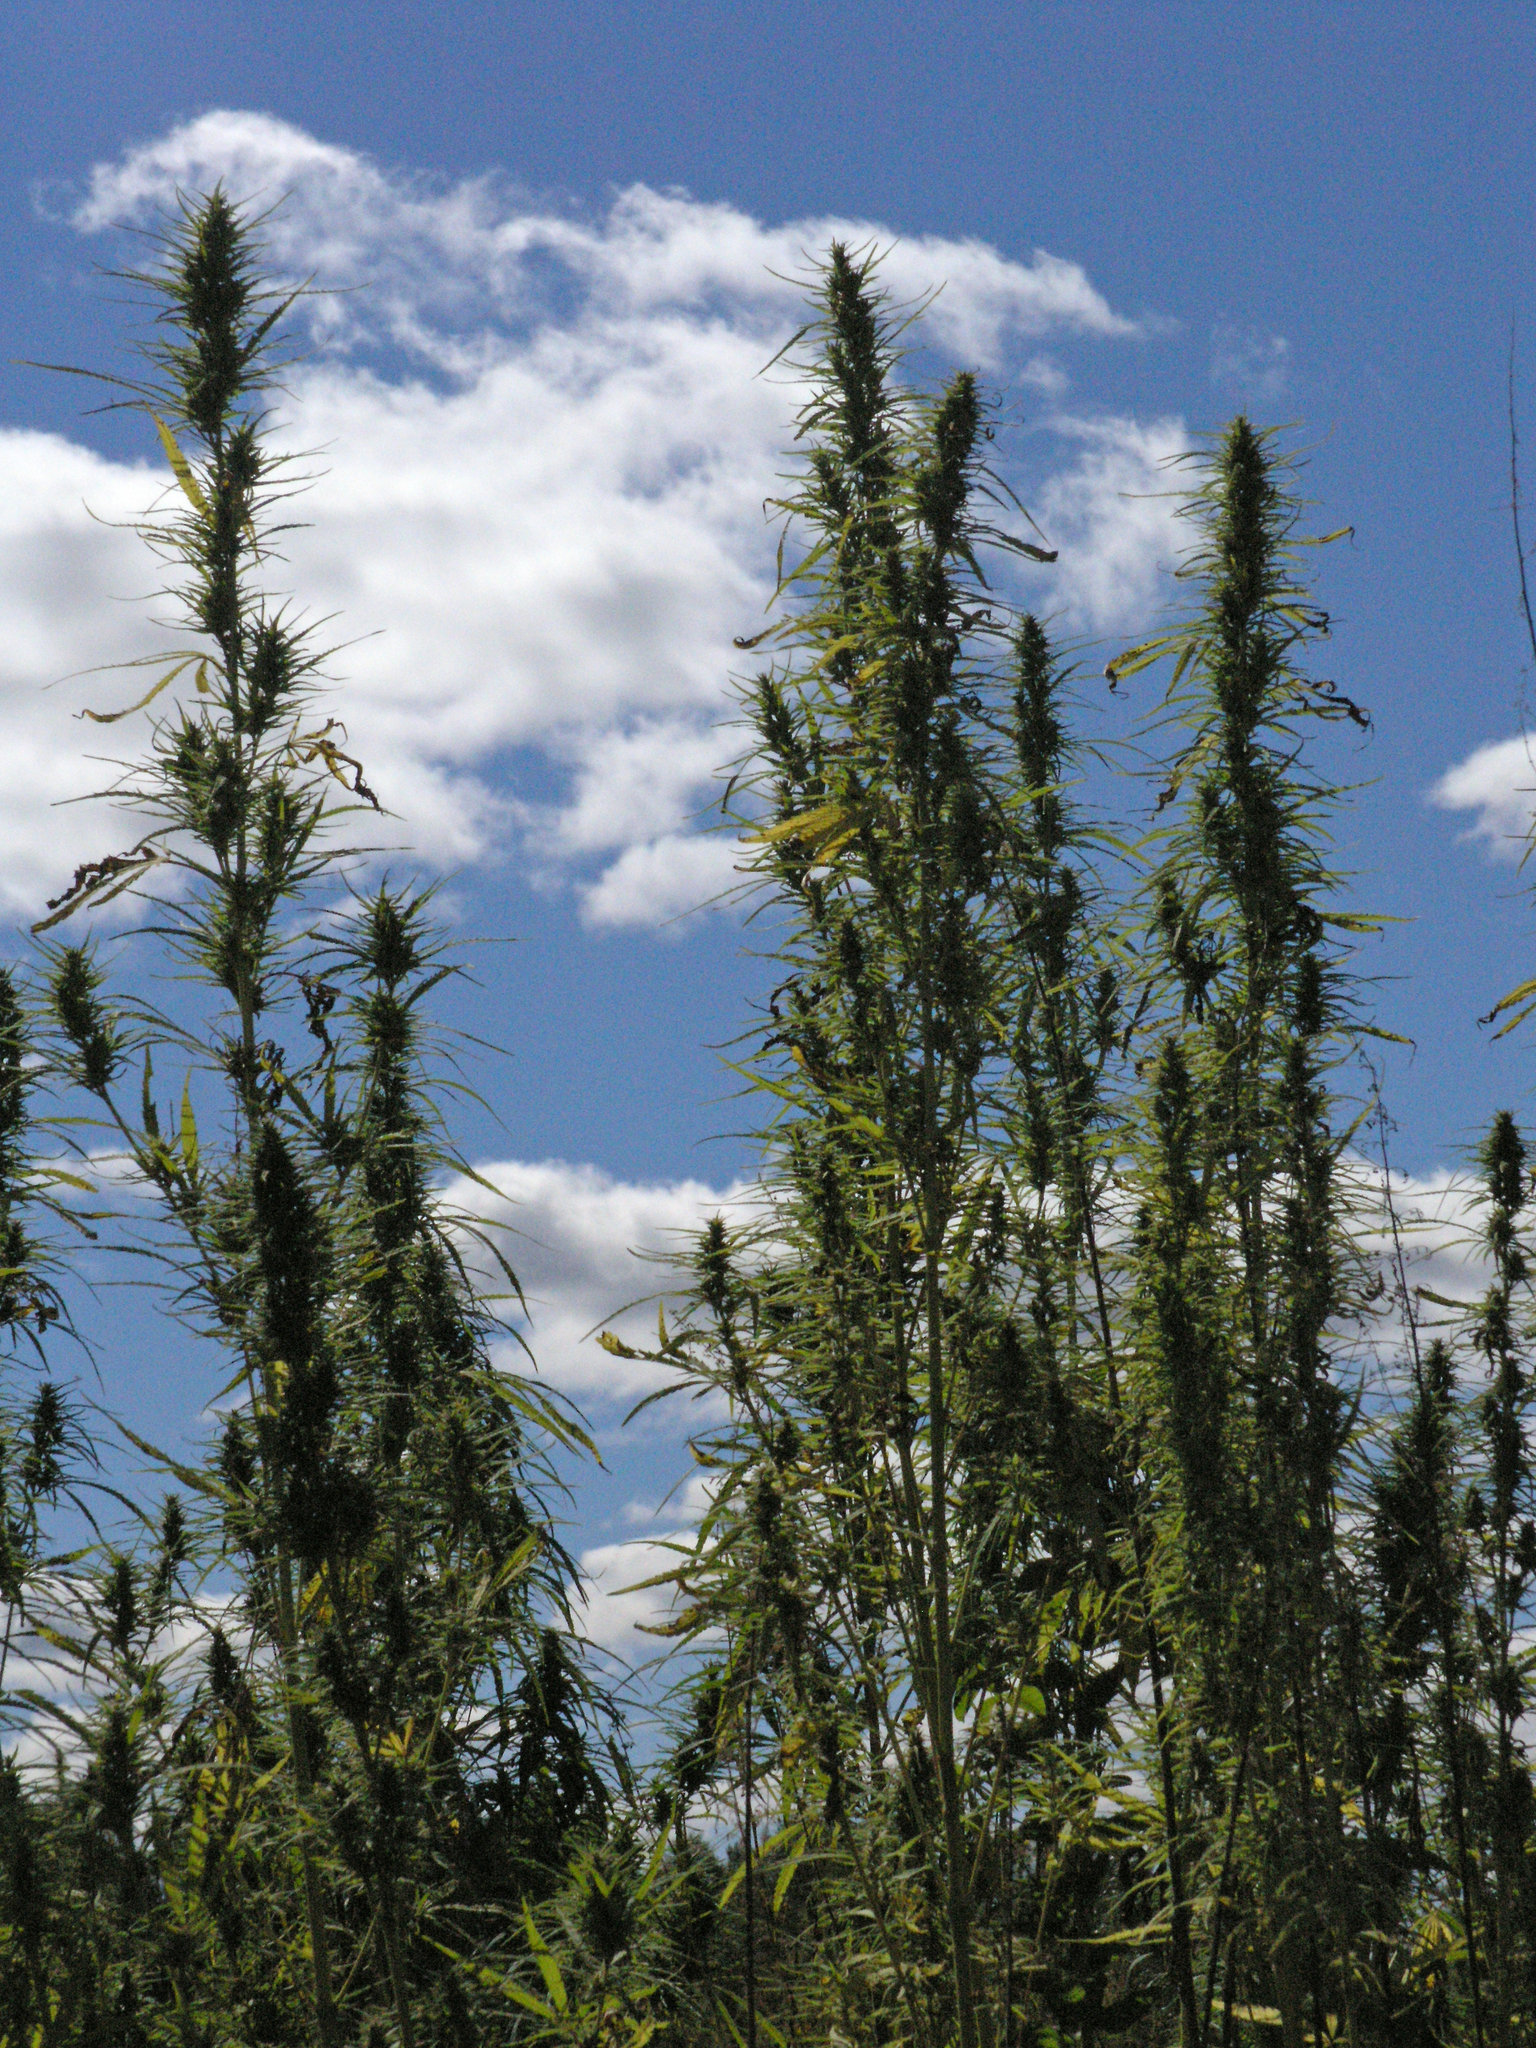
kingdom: Plantae
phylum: Tracheophyta
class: Magnoliopsida
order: Rosales
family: Cannabaceae
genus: Cannabis
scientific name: Cannabis sativa
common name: Hemp
